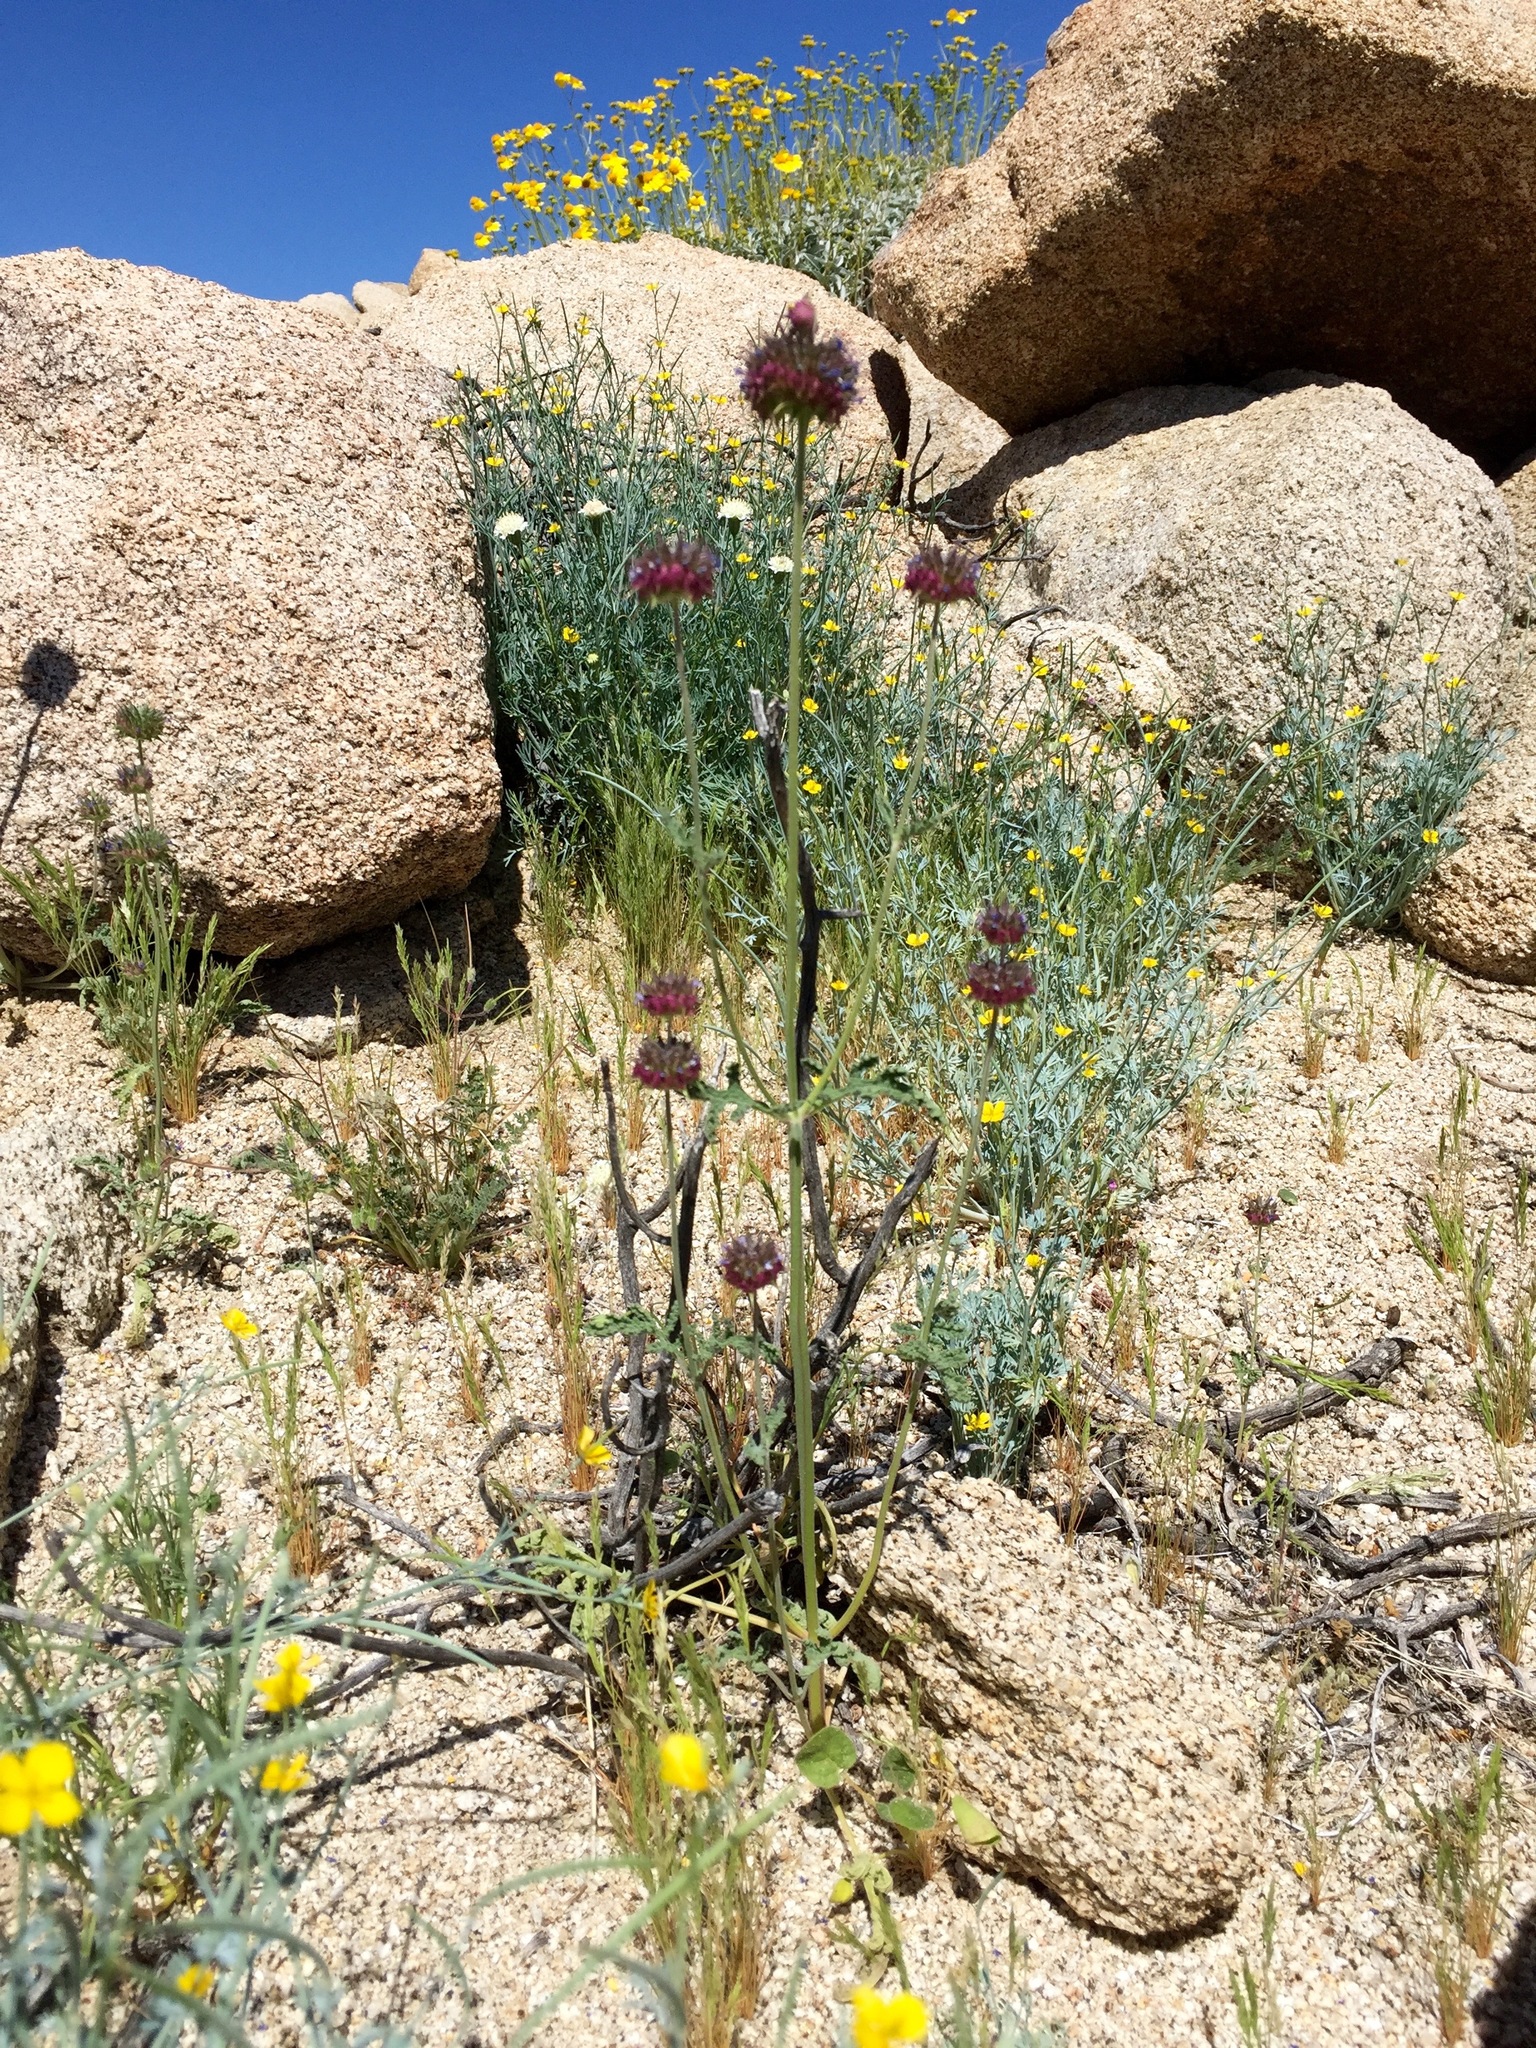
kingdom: Plantae
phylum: Tracheophyta
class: Magnoliopsida
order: Lamiales
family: Lamiaceae
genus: Salvia
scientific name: Salvia columbariae
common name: Chia
